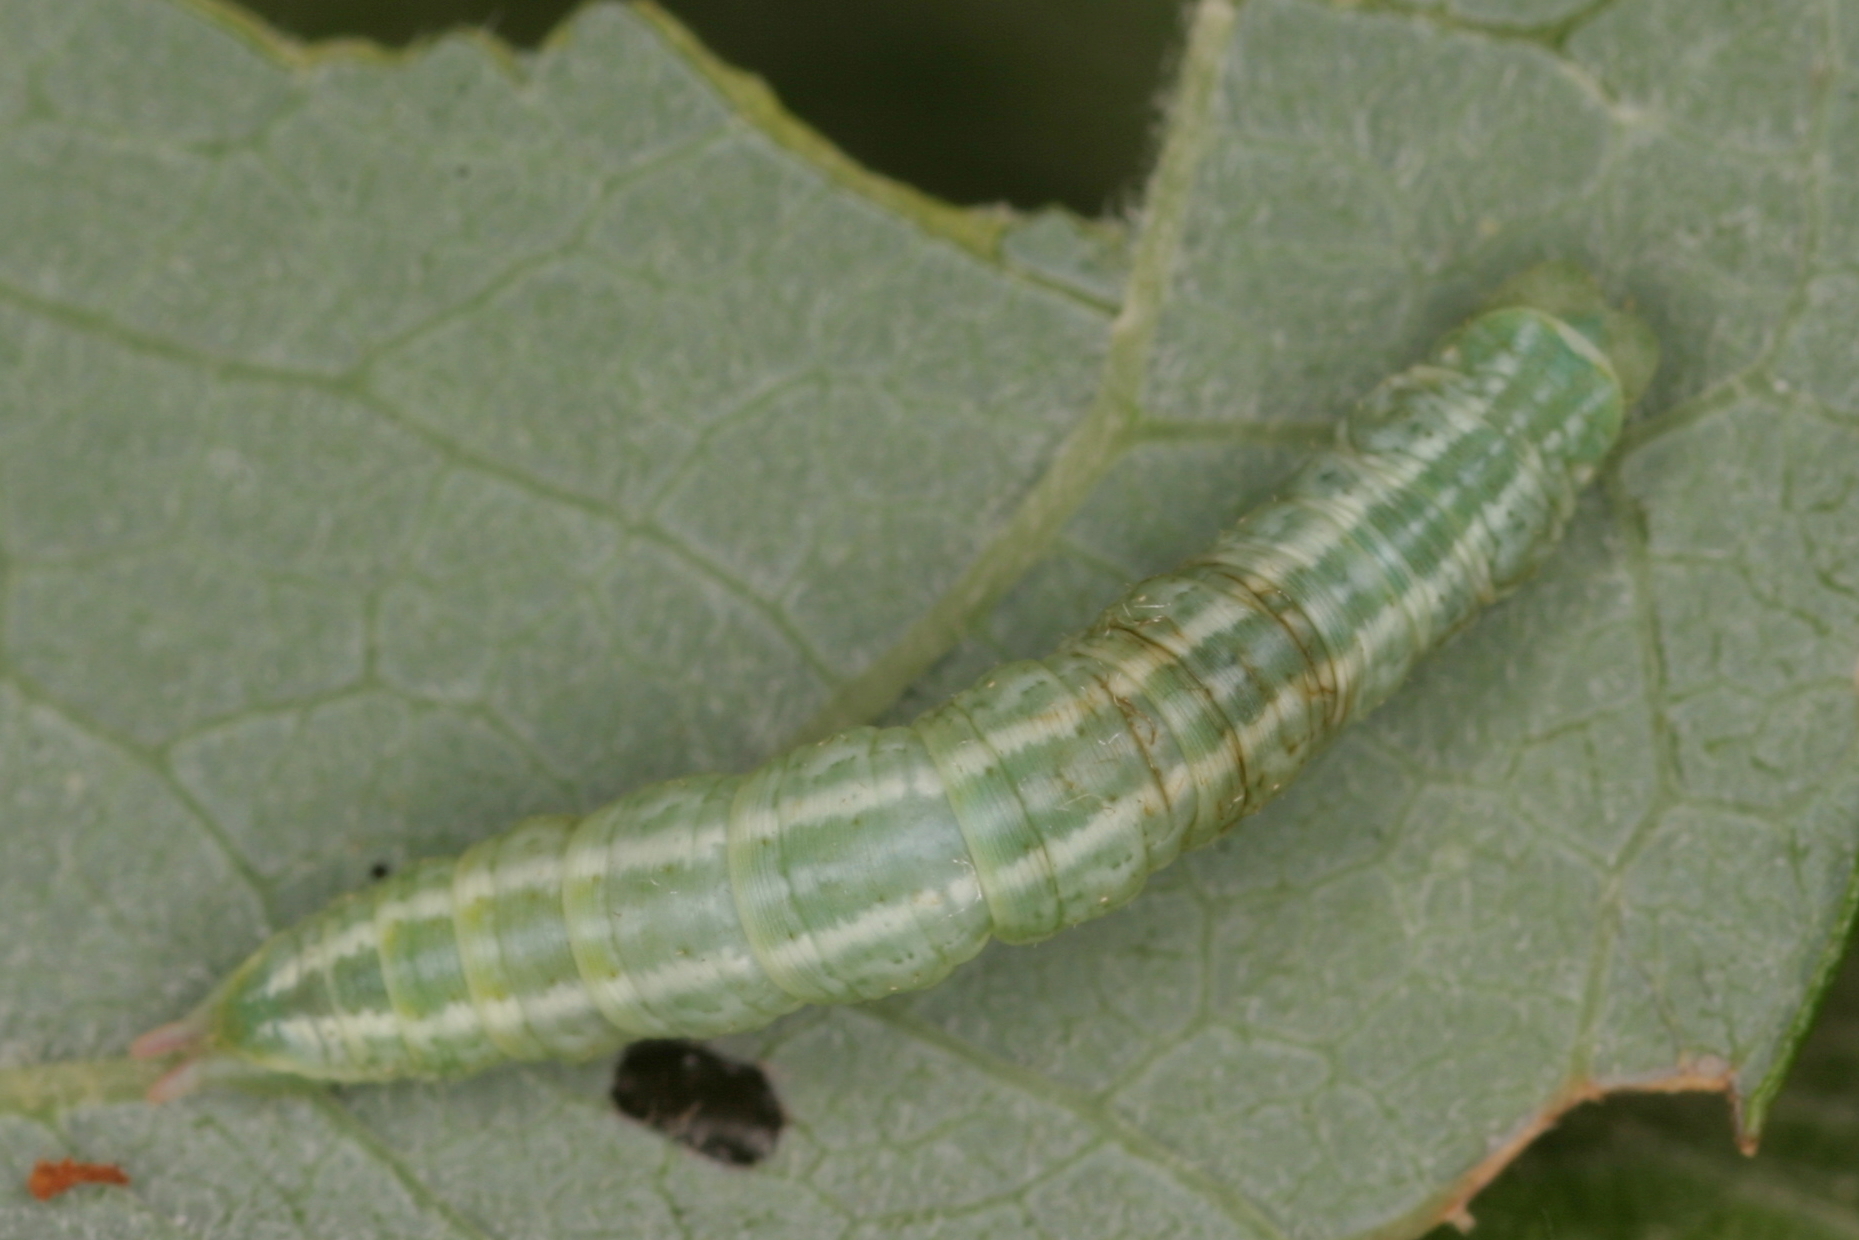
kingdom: Animalia
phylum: Arthropoda
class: Insecta
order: Lepidoptera
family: Geometridae
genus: Pterapherapteryx
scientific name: Pterapherapteryx sexalata
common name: Small seraphim
